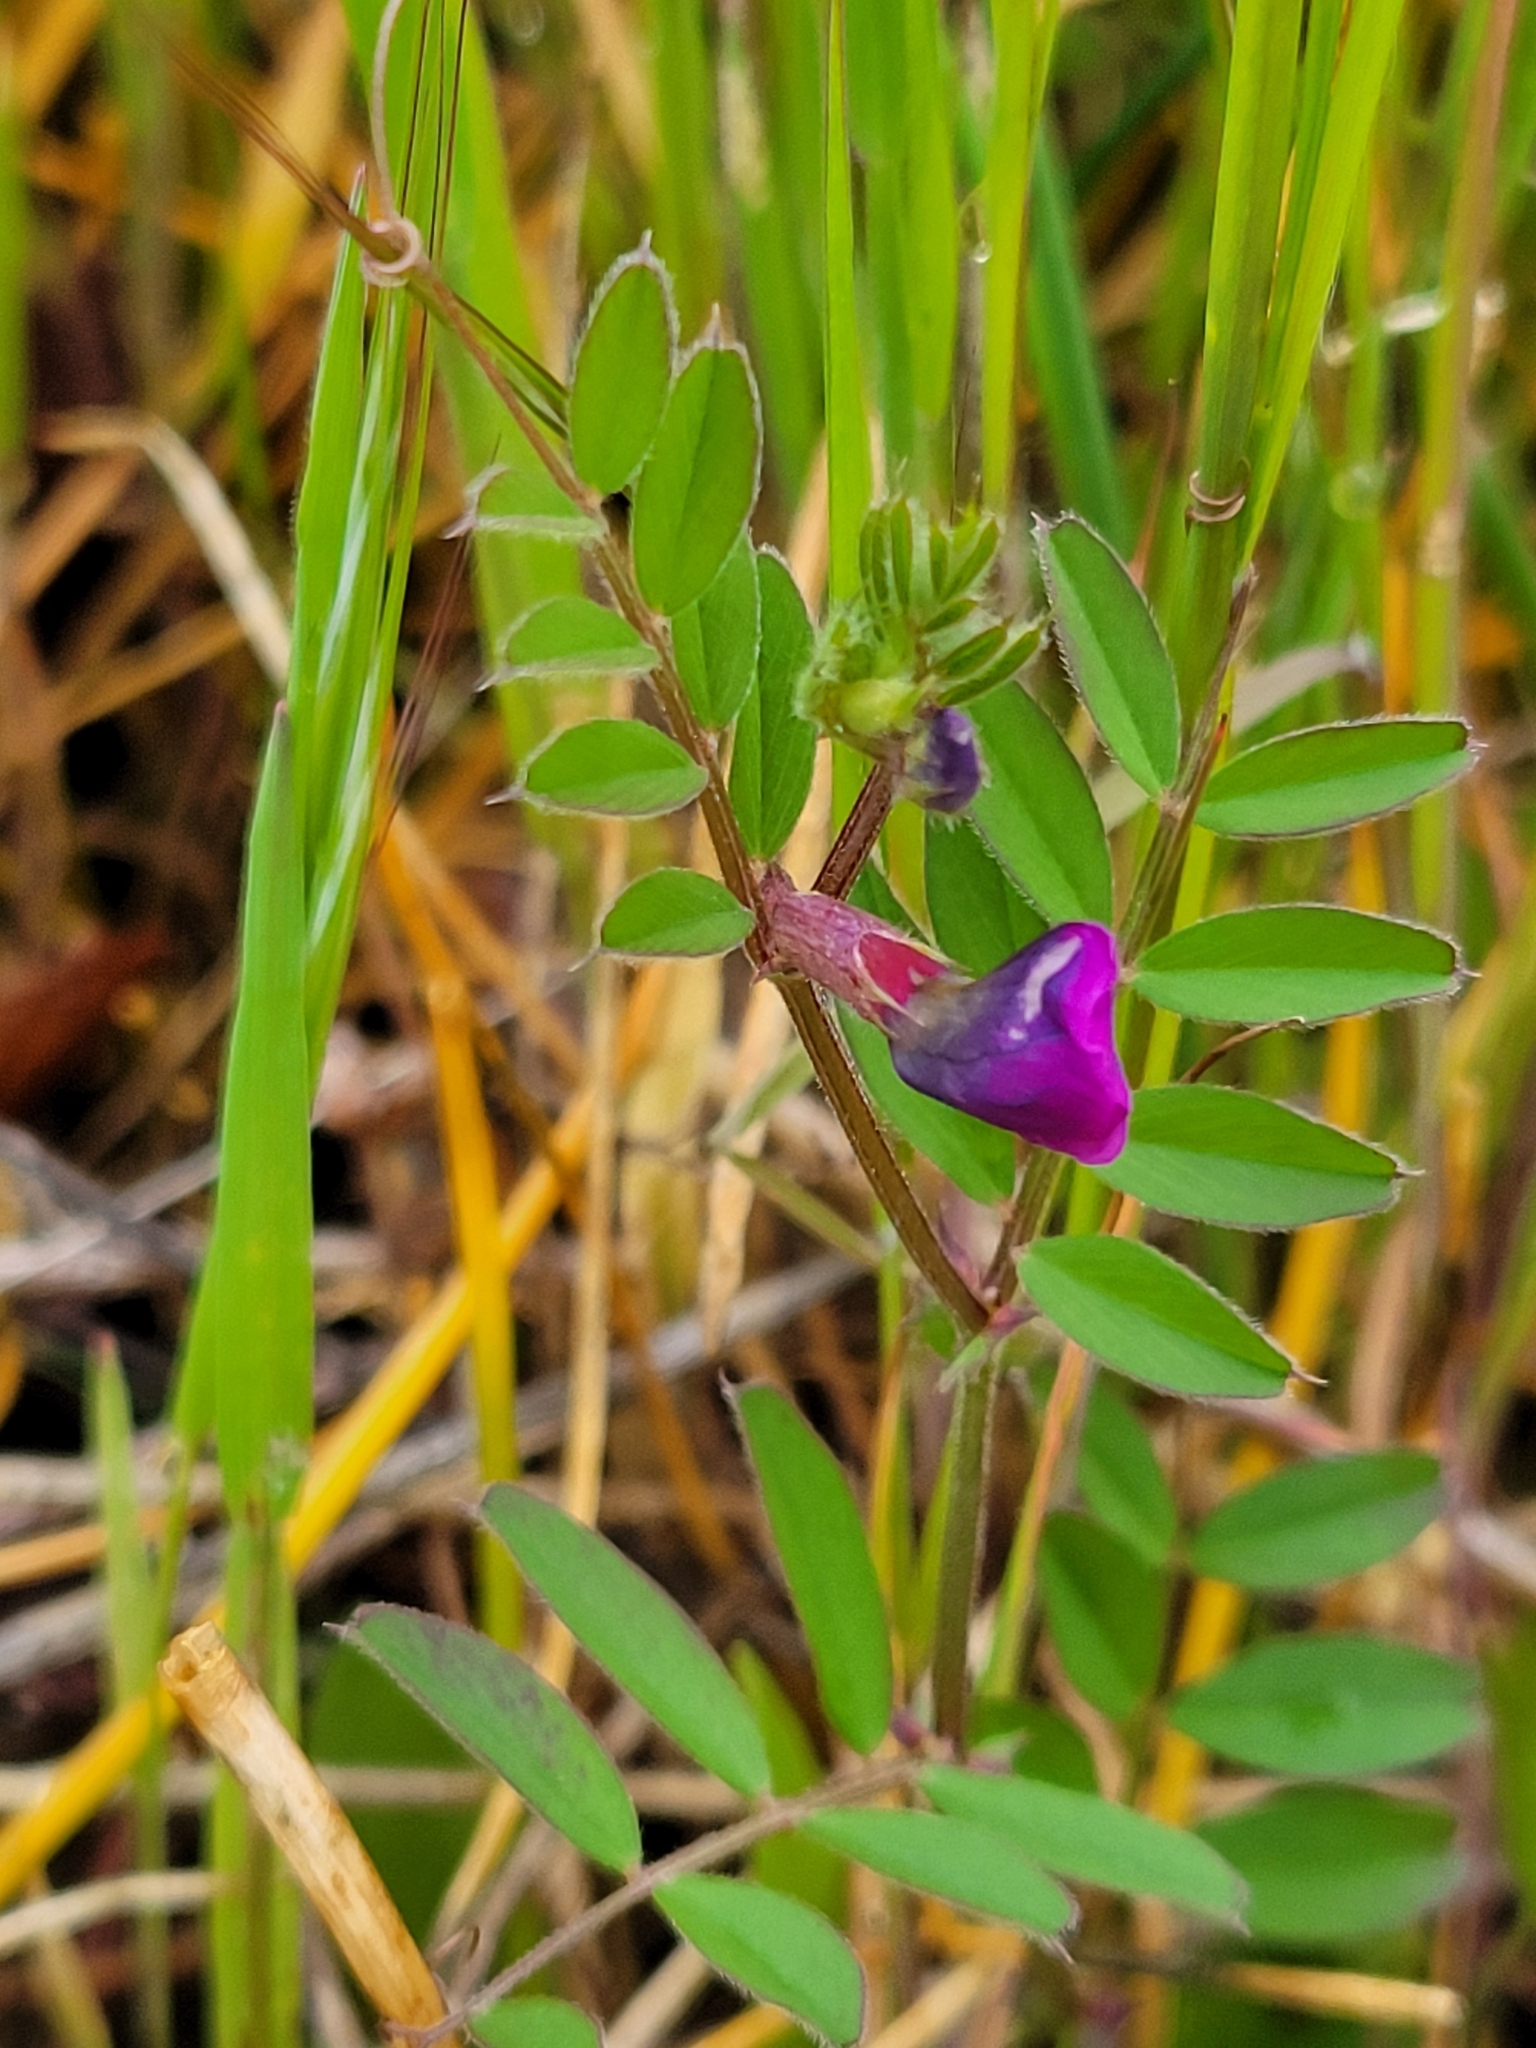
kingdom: Plantae
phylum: Tracheophyta
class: Magnoliopsida
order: Fabales
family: Fabaceae
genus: Vicia
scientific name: Vicia sativa
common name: Garden vetch
